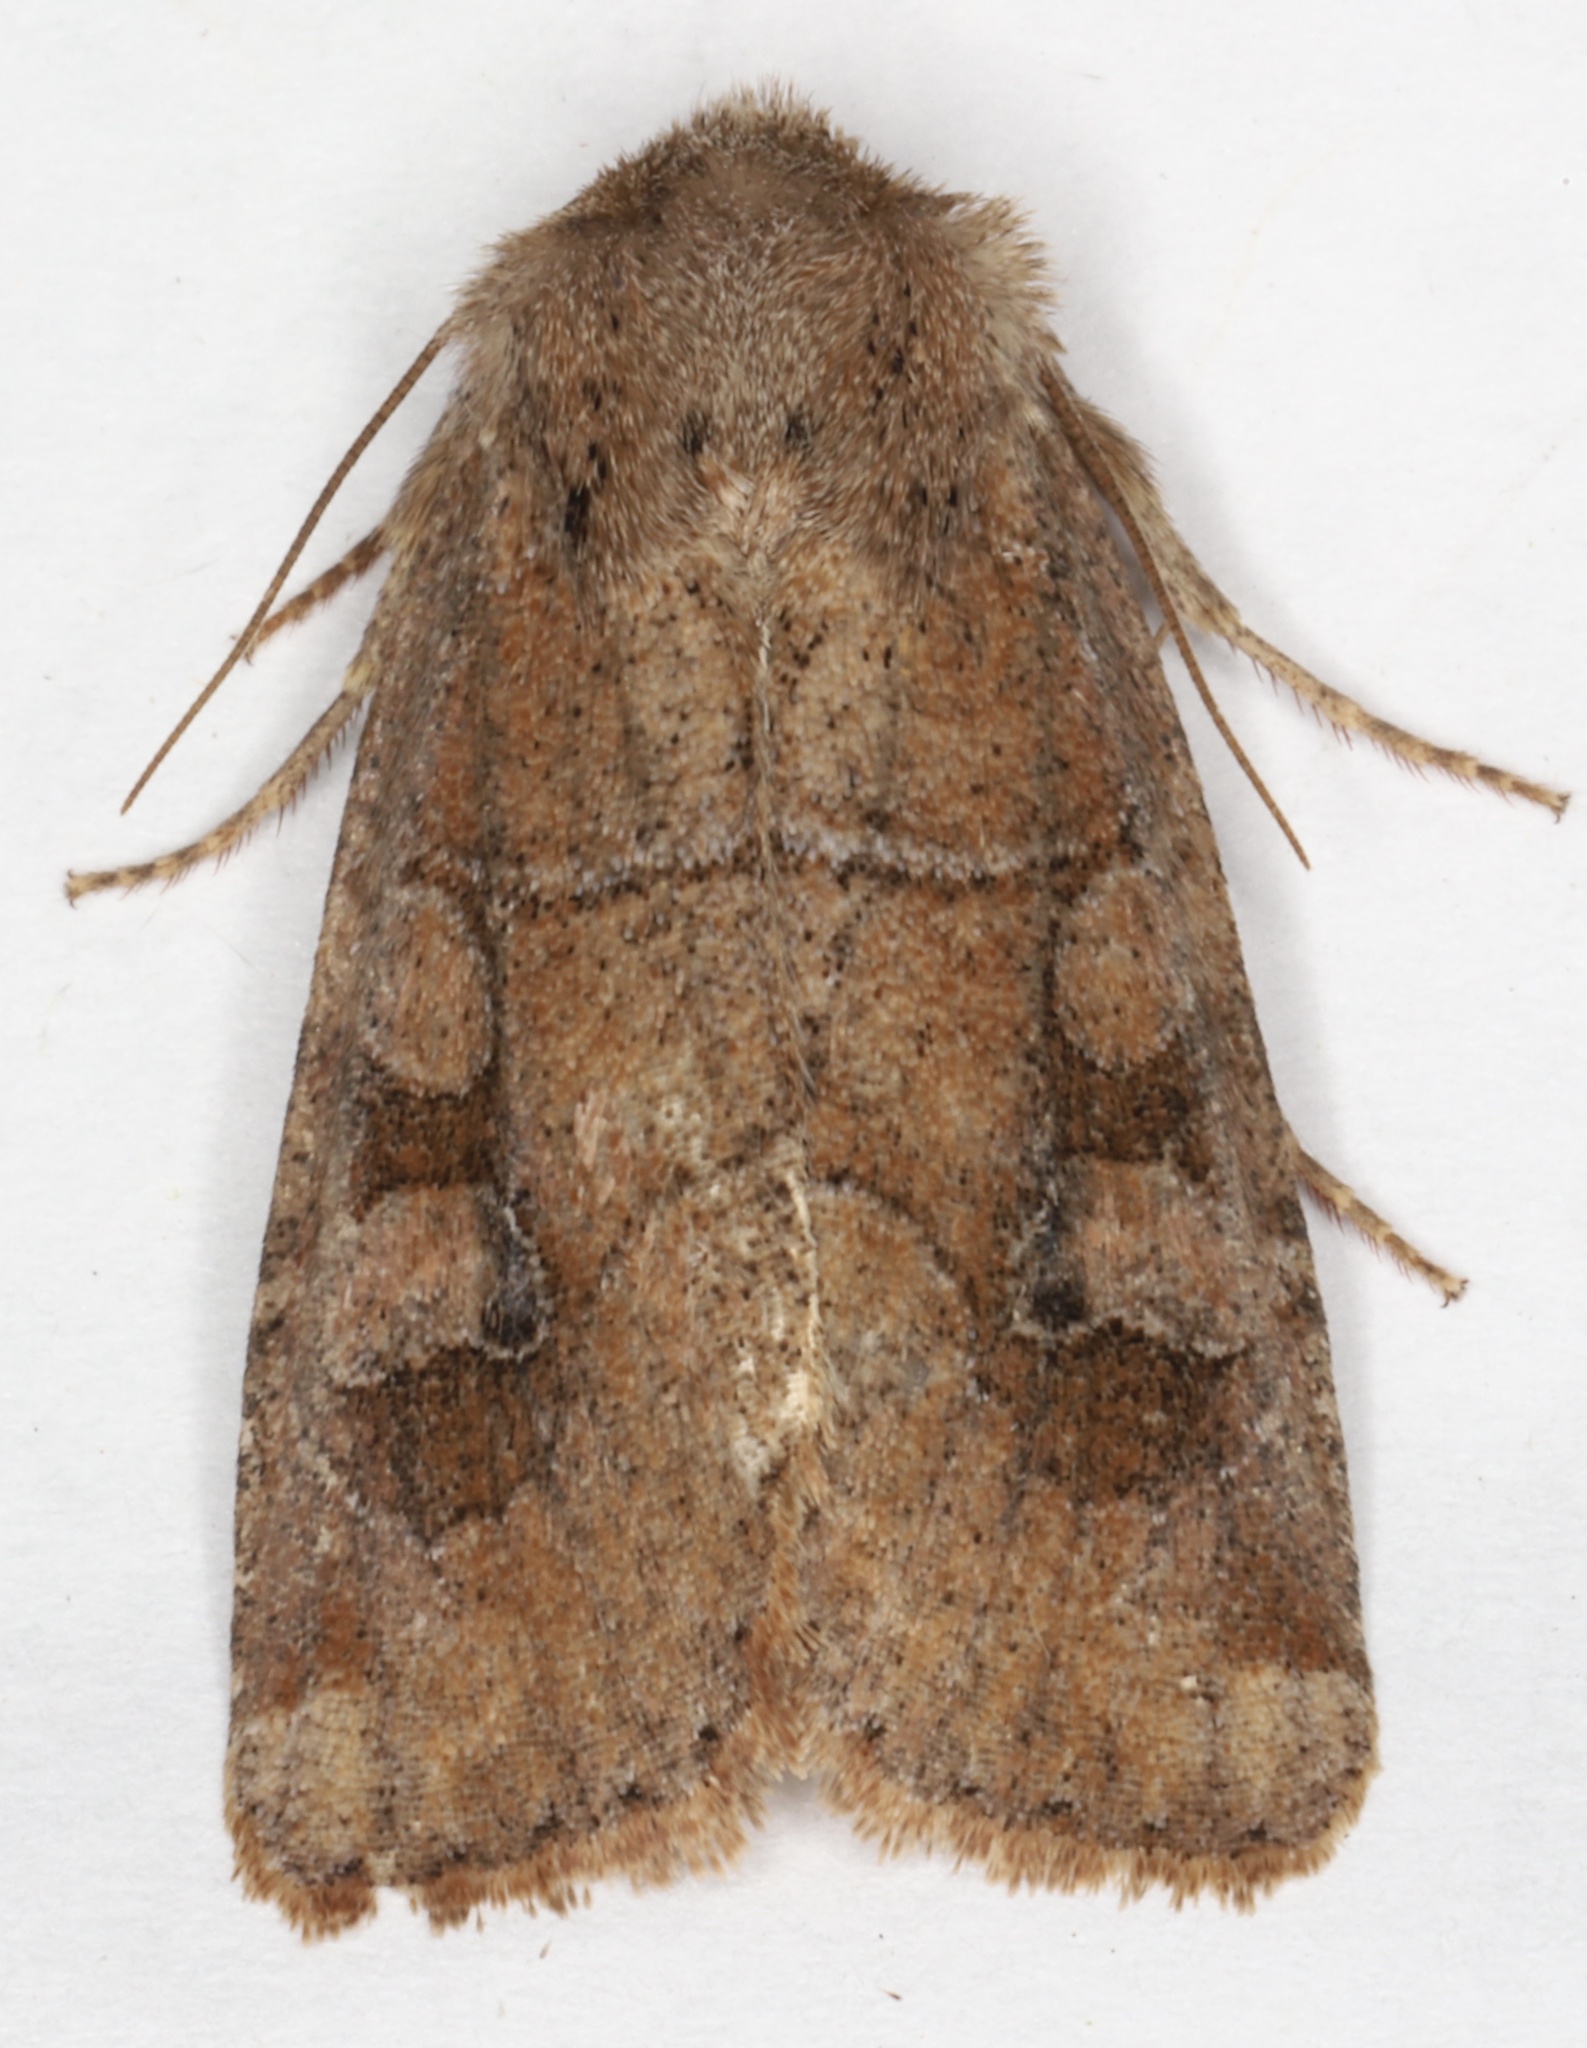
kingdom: Animalia
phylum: Arthropoda
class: Insecta
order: Lepidoptera
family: Noctuidae
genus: Crocigrapha
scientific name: Crocigrapha normani
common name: Norman's quaker
